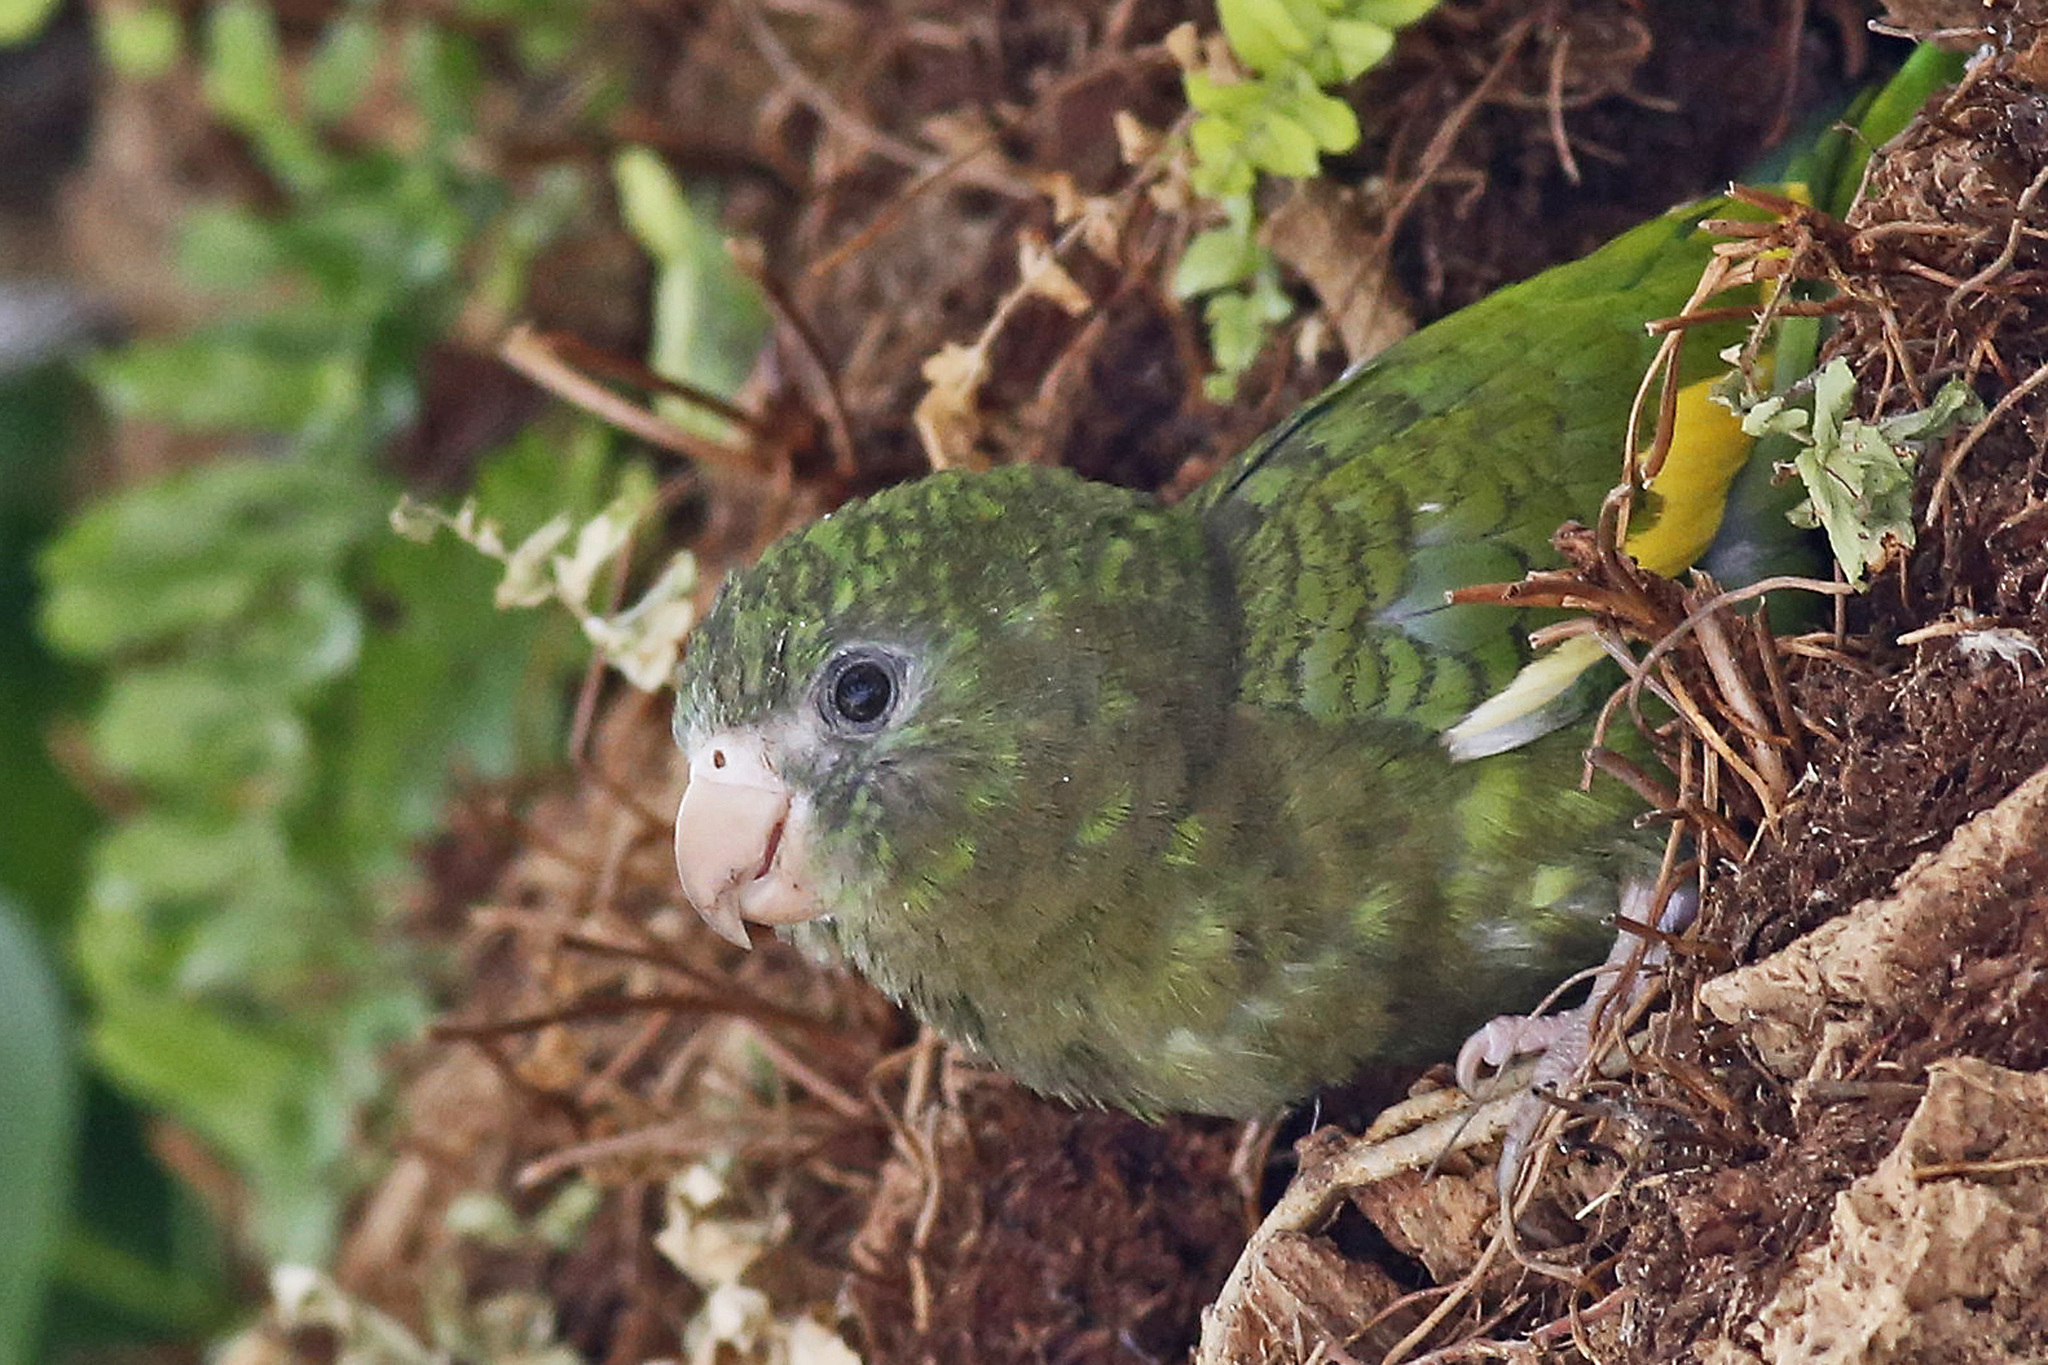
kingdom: Animalia
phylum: Chordata
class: Aves
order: Psittaciformes
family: Psittacidae
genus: Brotogeris
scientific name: Brotogeris versicolurus
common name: White-winged parakeet
